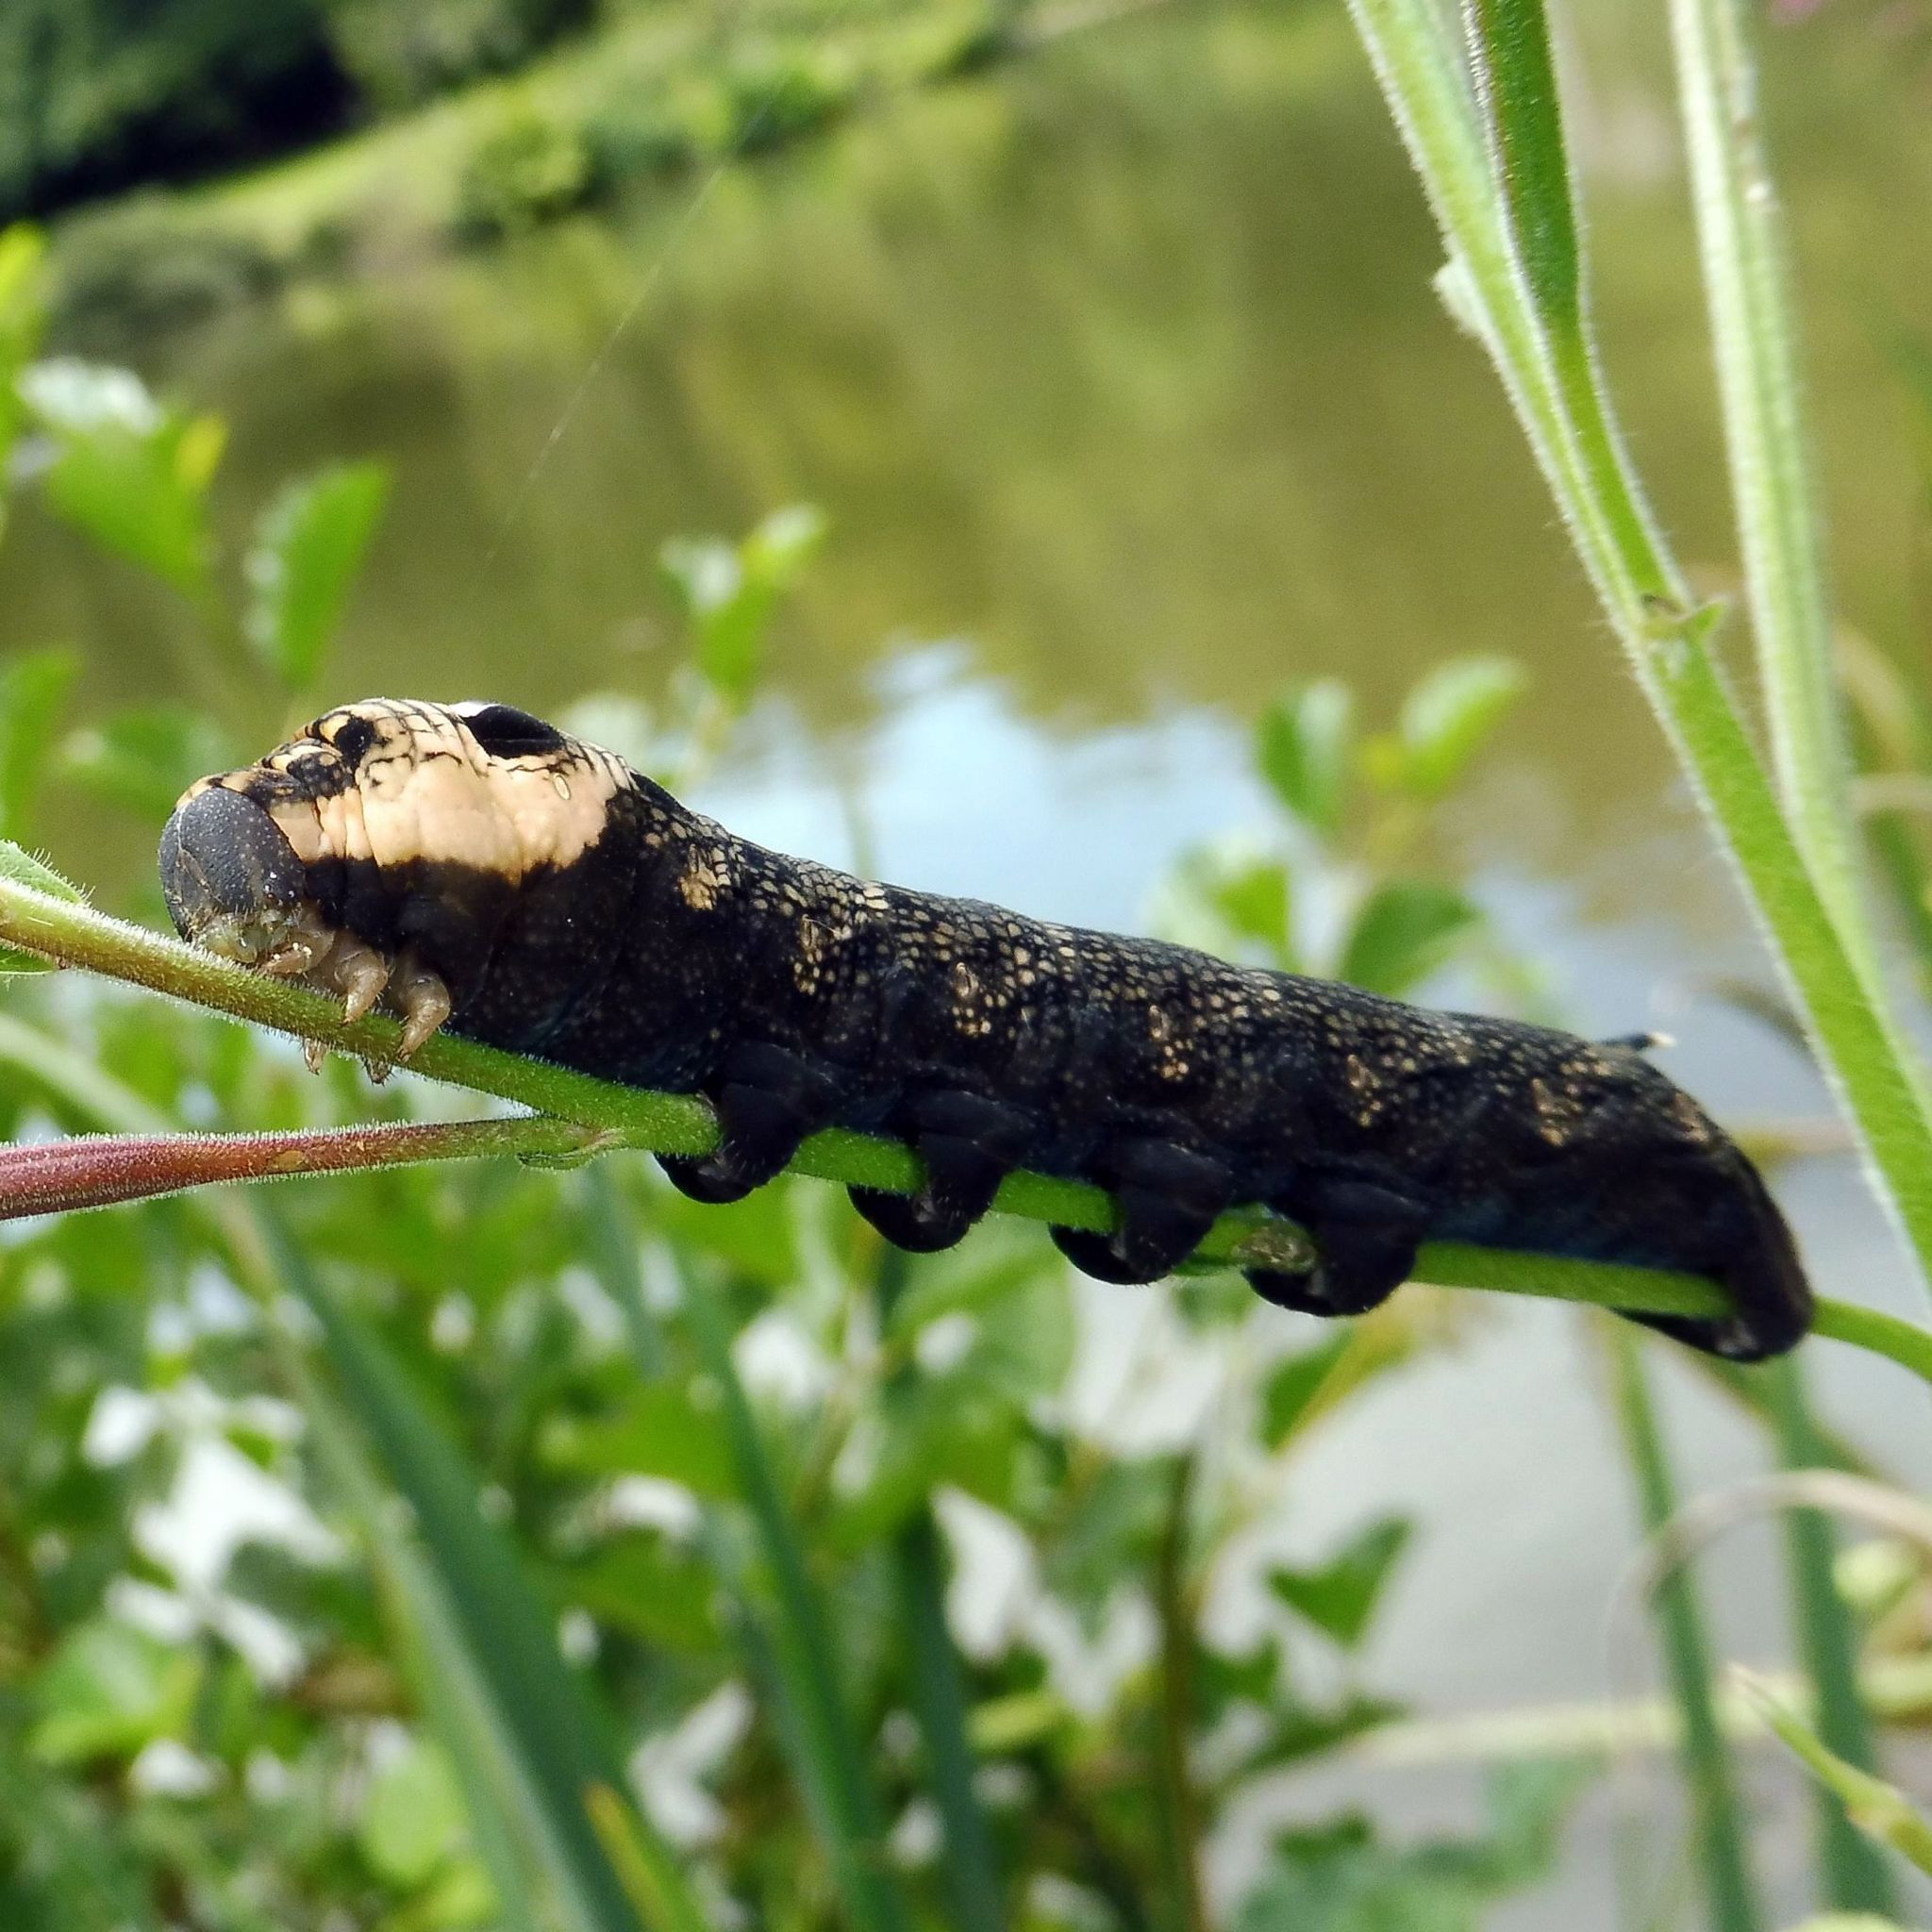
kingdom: Animalia
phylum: Arthropoda
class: Insecta
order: Lepidoptera
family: Sphingidae
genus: Deilephila
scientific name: Deilephila elpenor
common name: Elephant hawk-moth
